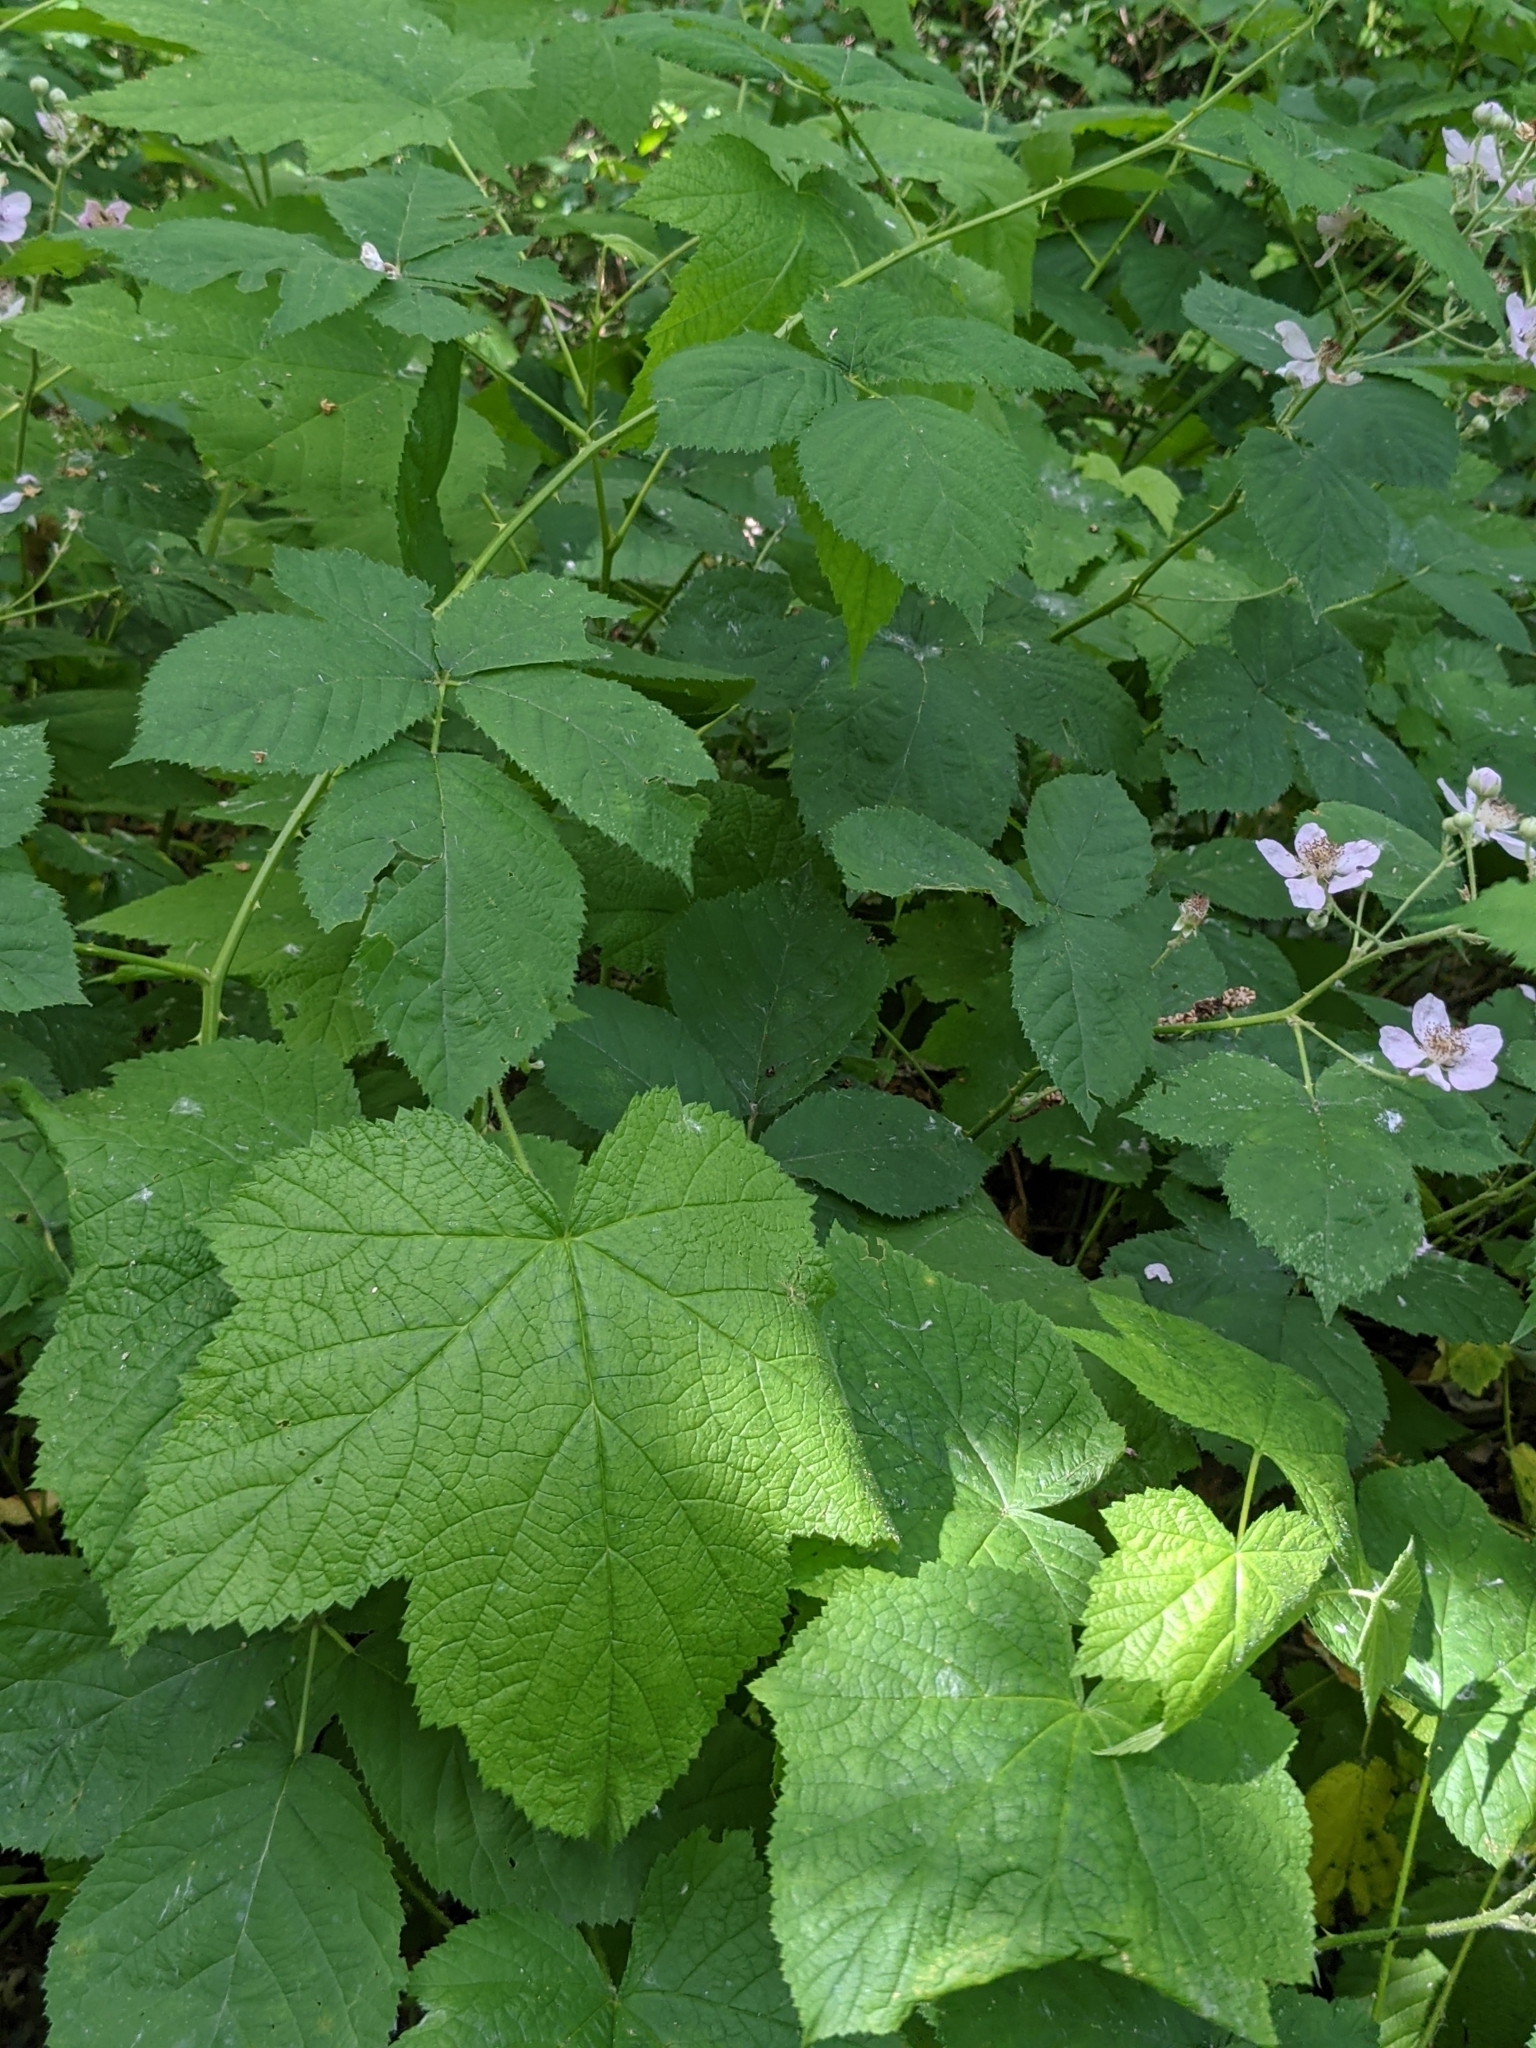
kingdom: Plantae
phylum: Tracheophyta
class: Magnoliopsida
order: Rosales
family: Rosaceae
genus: Rubus
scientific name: Rubus parviflorus
